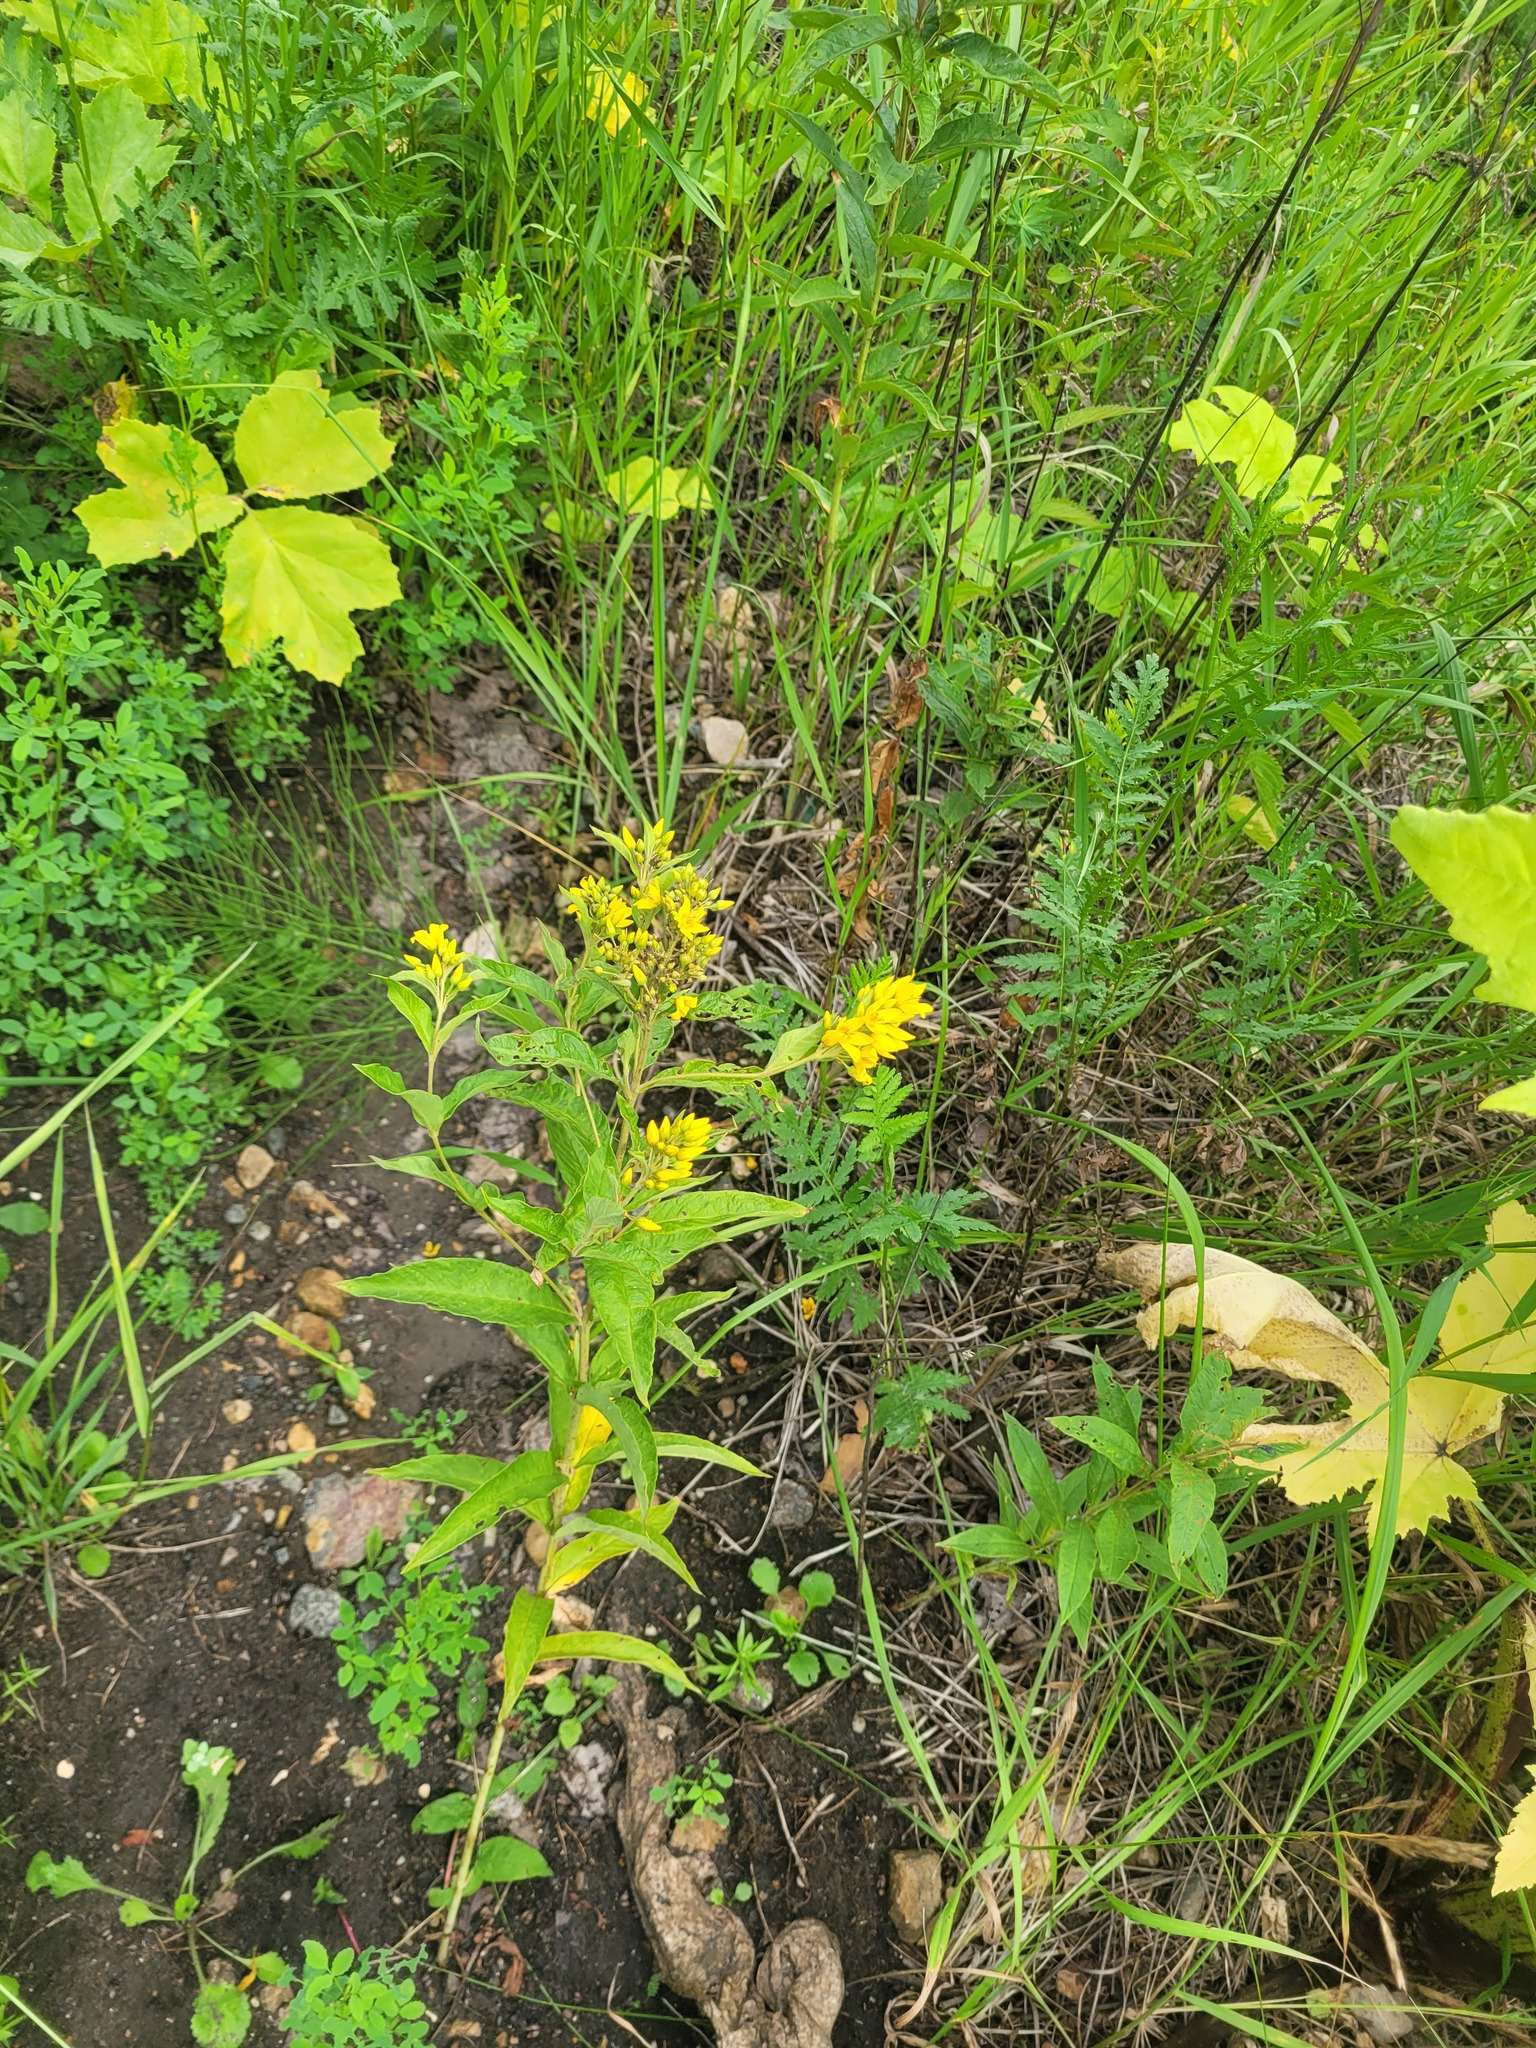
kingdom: Plantae
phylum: Tracheophyta
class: Magnoliopsida
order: Ericales
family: Primulaceae
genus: Lysimachia
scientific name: Lysimachia vulgaris
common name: Yellow loosestrife
